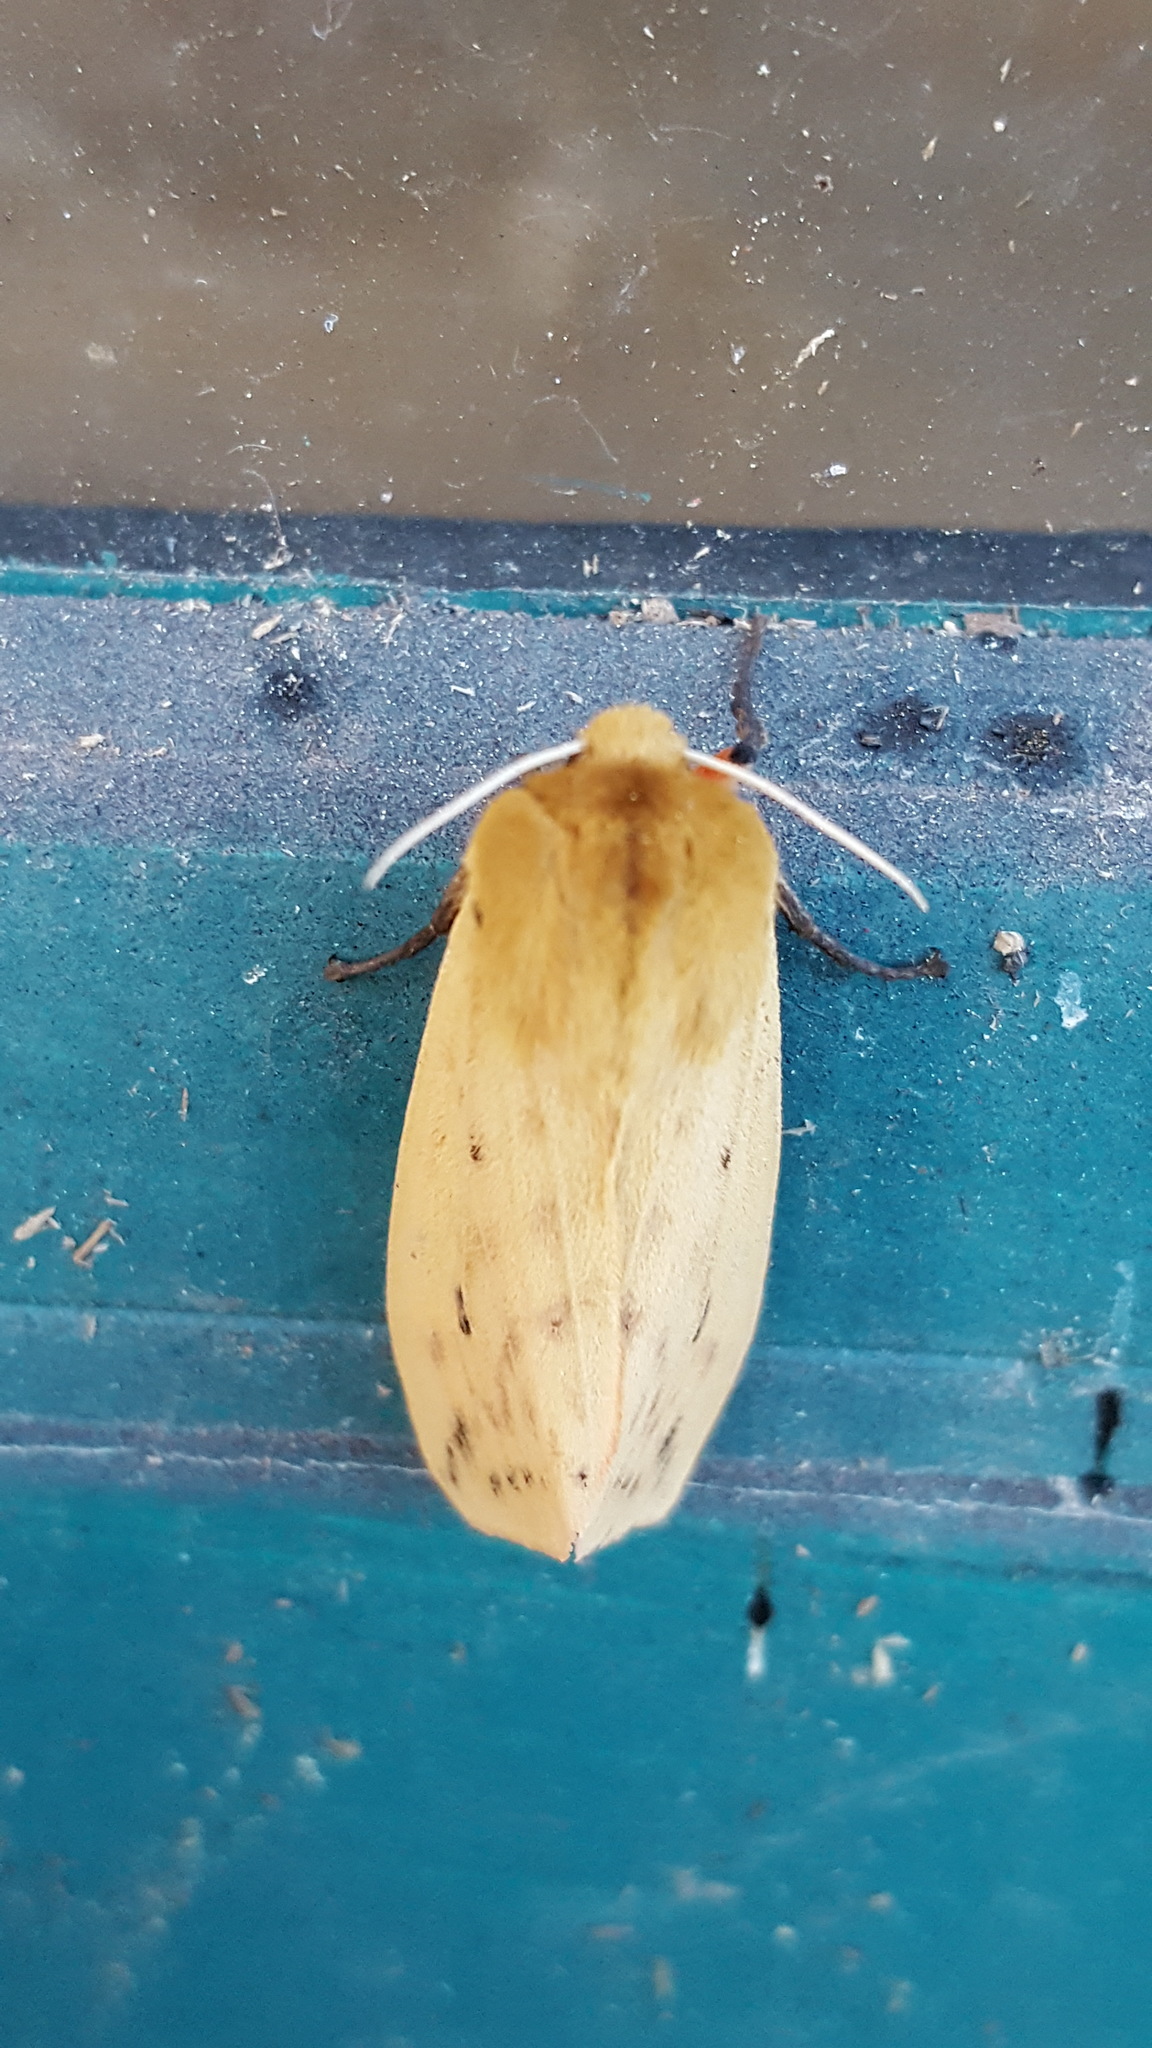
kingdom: Animalia
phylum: Arthropoda
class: Insecta
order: Lepidoptera
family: Erebidae
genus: Pyrrharctia
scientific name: Pyrrharctia isabella
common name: Isabella tiger moth
